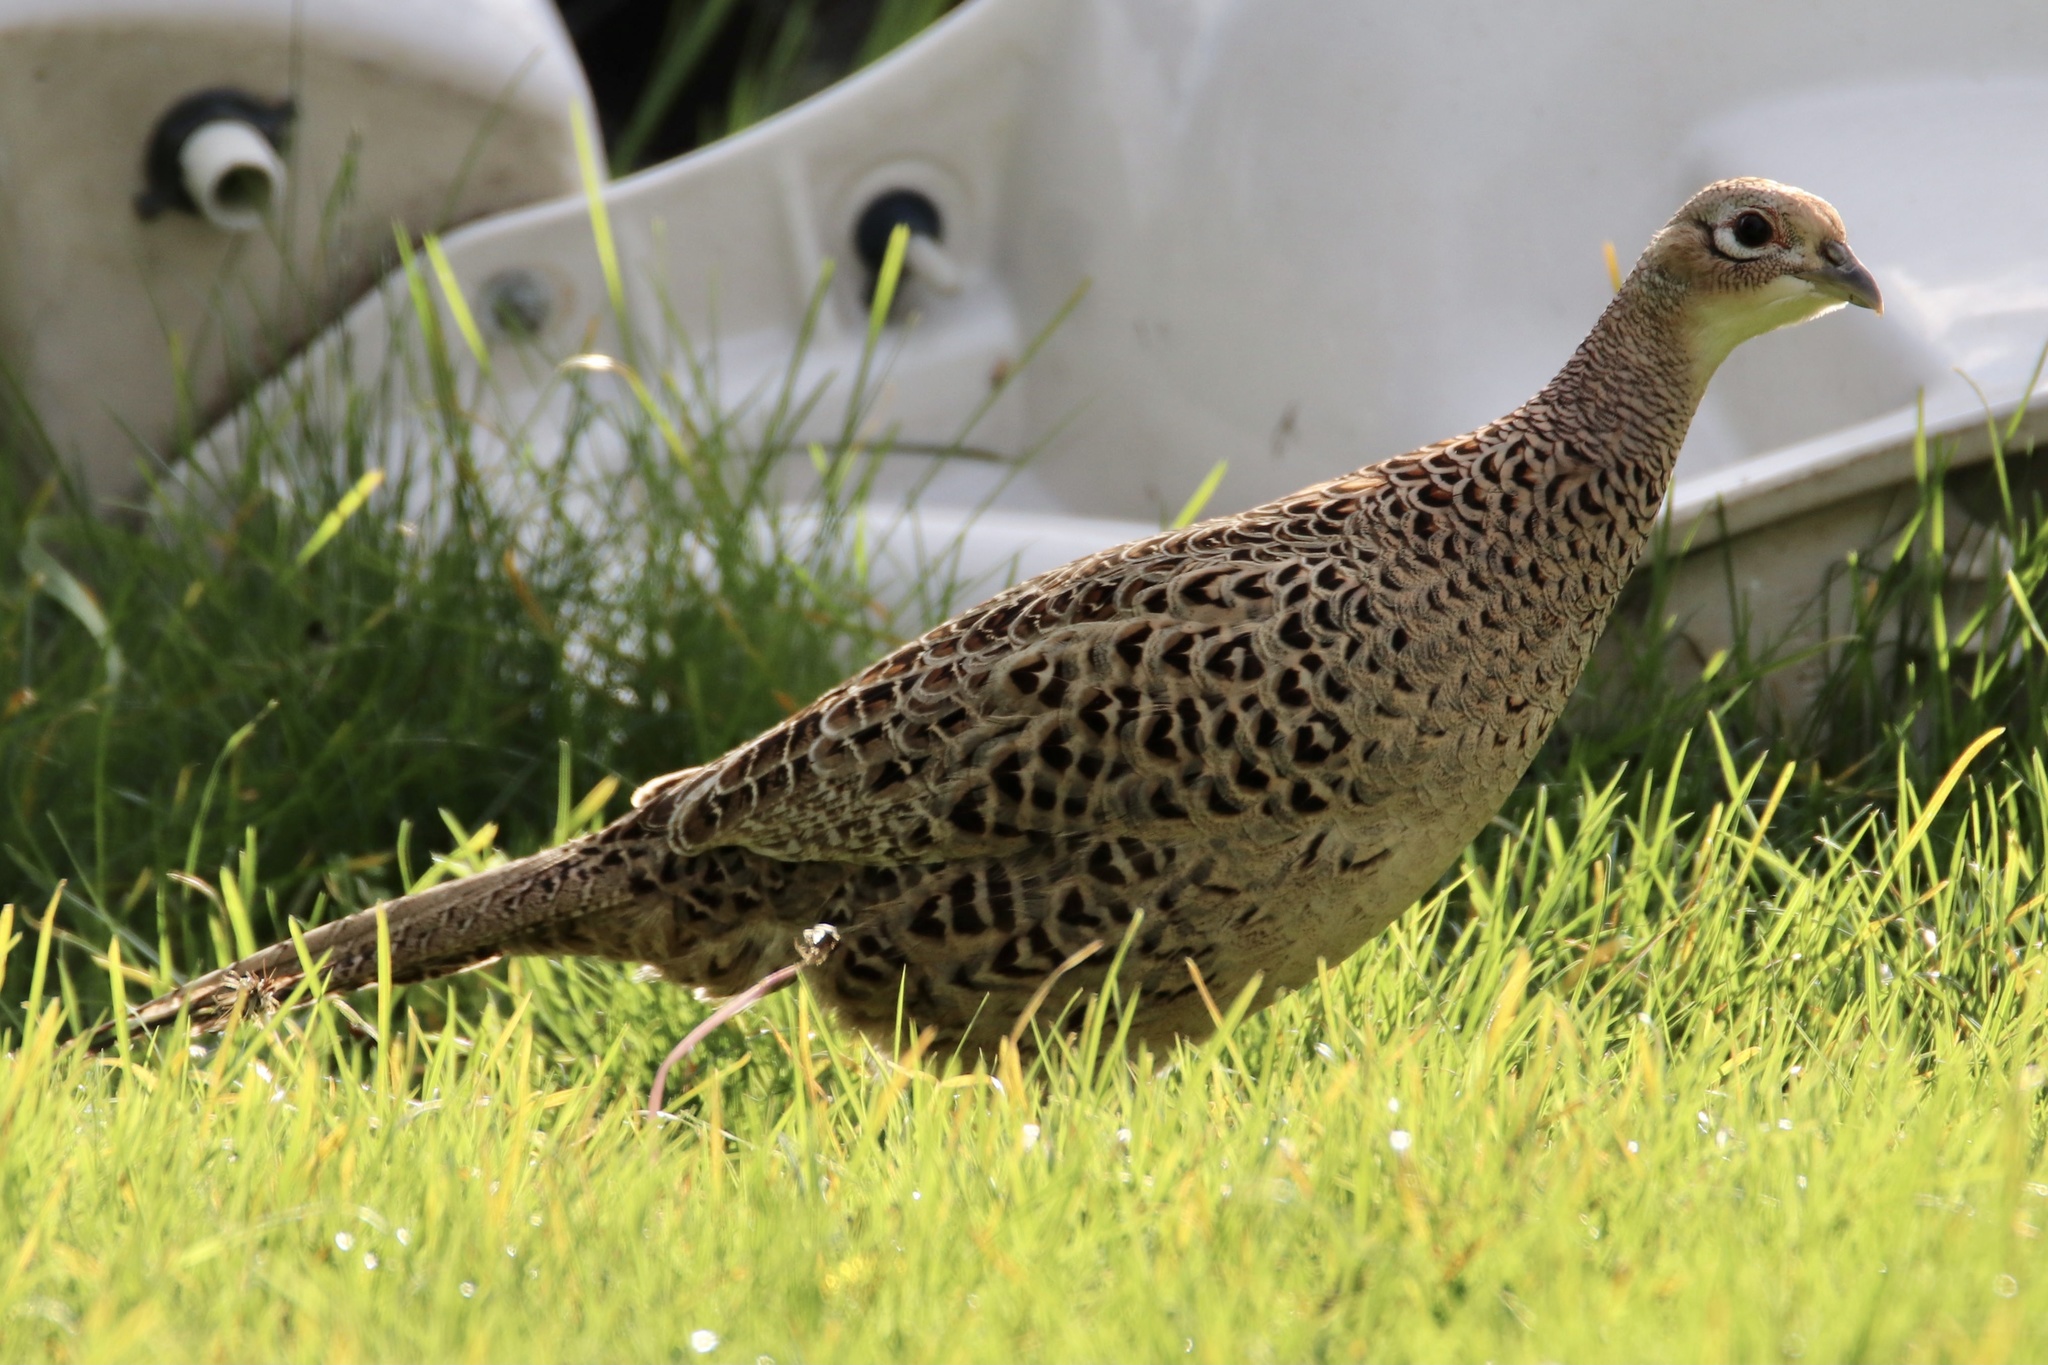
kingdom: Animalia
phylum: Chordata
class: Aves
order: Galliformes
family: Phasianidae
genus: Phasianus
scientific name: Phasianus colchicus
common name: Common pheasant
